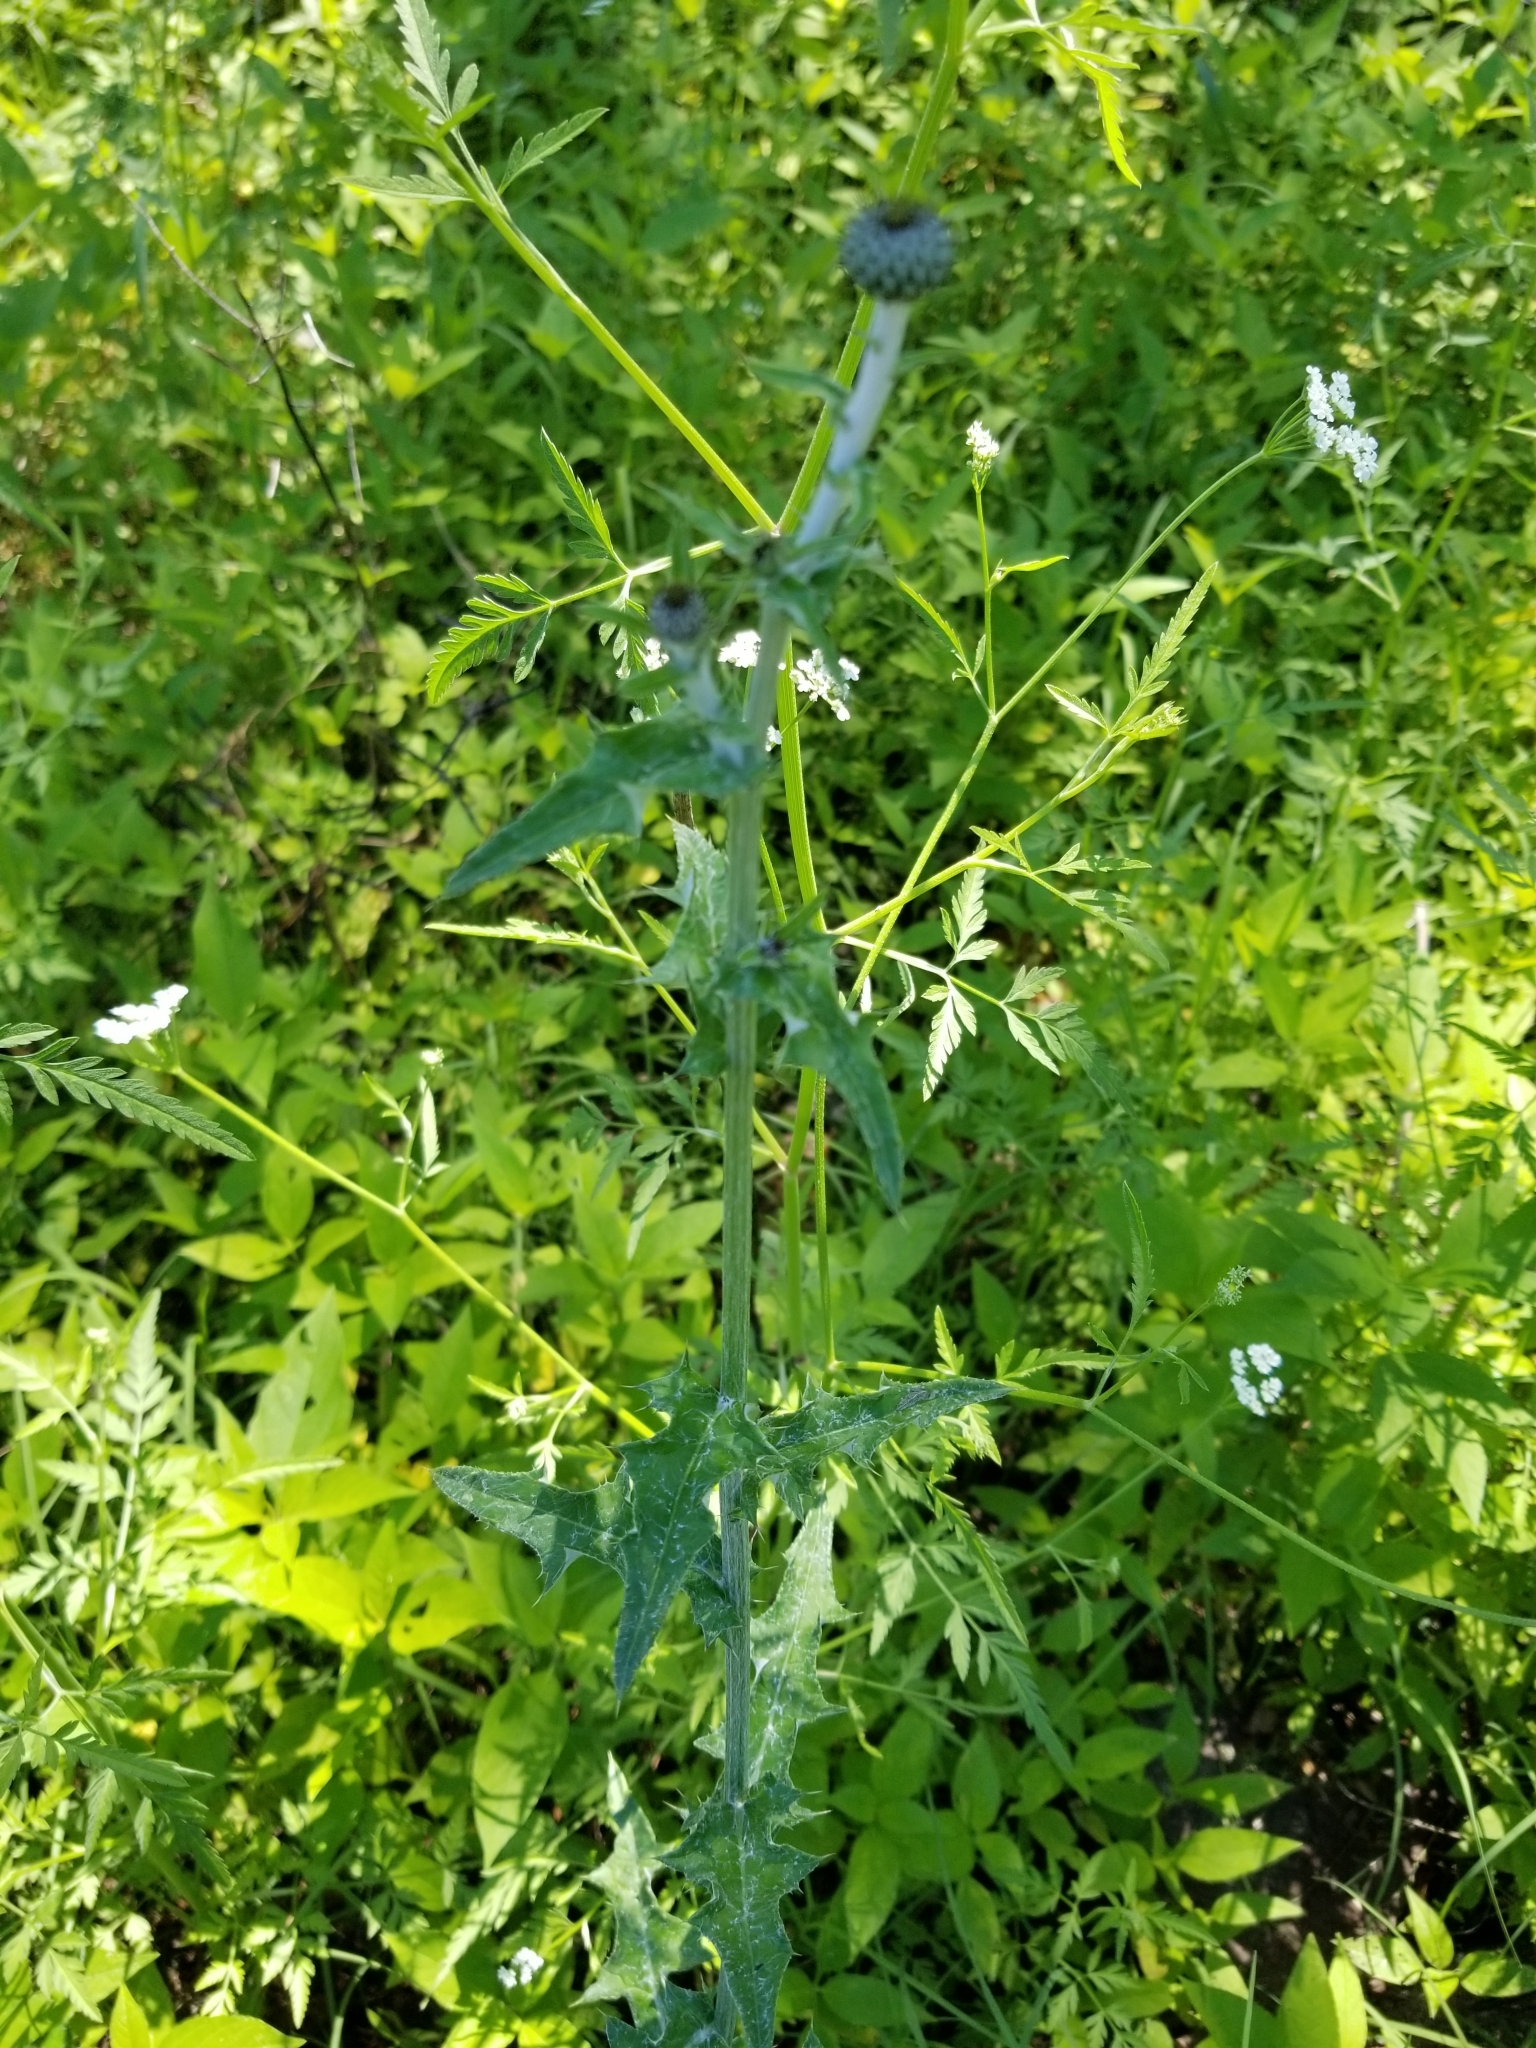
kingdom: Plantae
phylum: Tracheophyta
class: Magnoliopsida
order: Asterales
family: Asteraceae
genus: Cirsium
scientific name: Cirsium texanum
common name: Texas purple thistle
